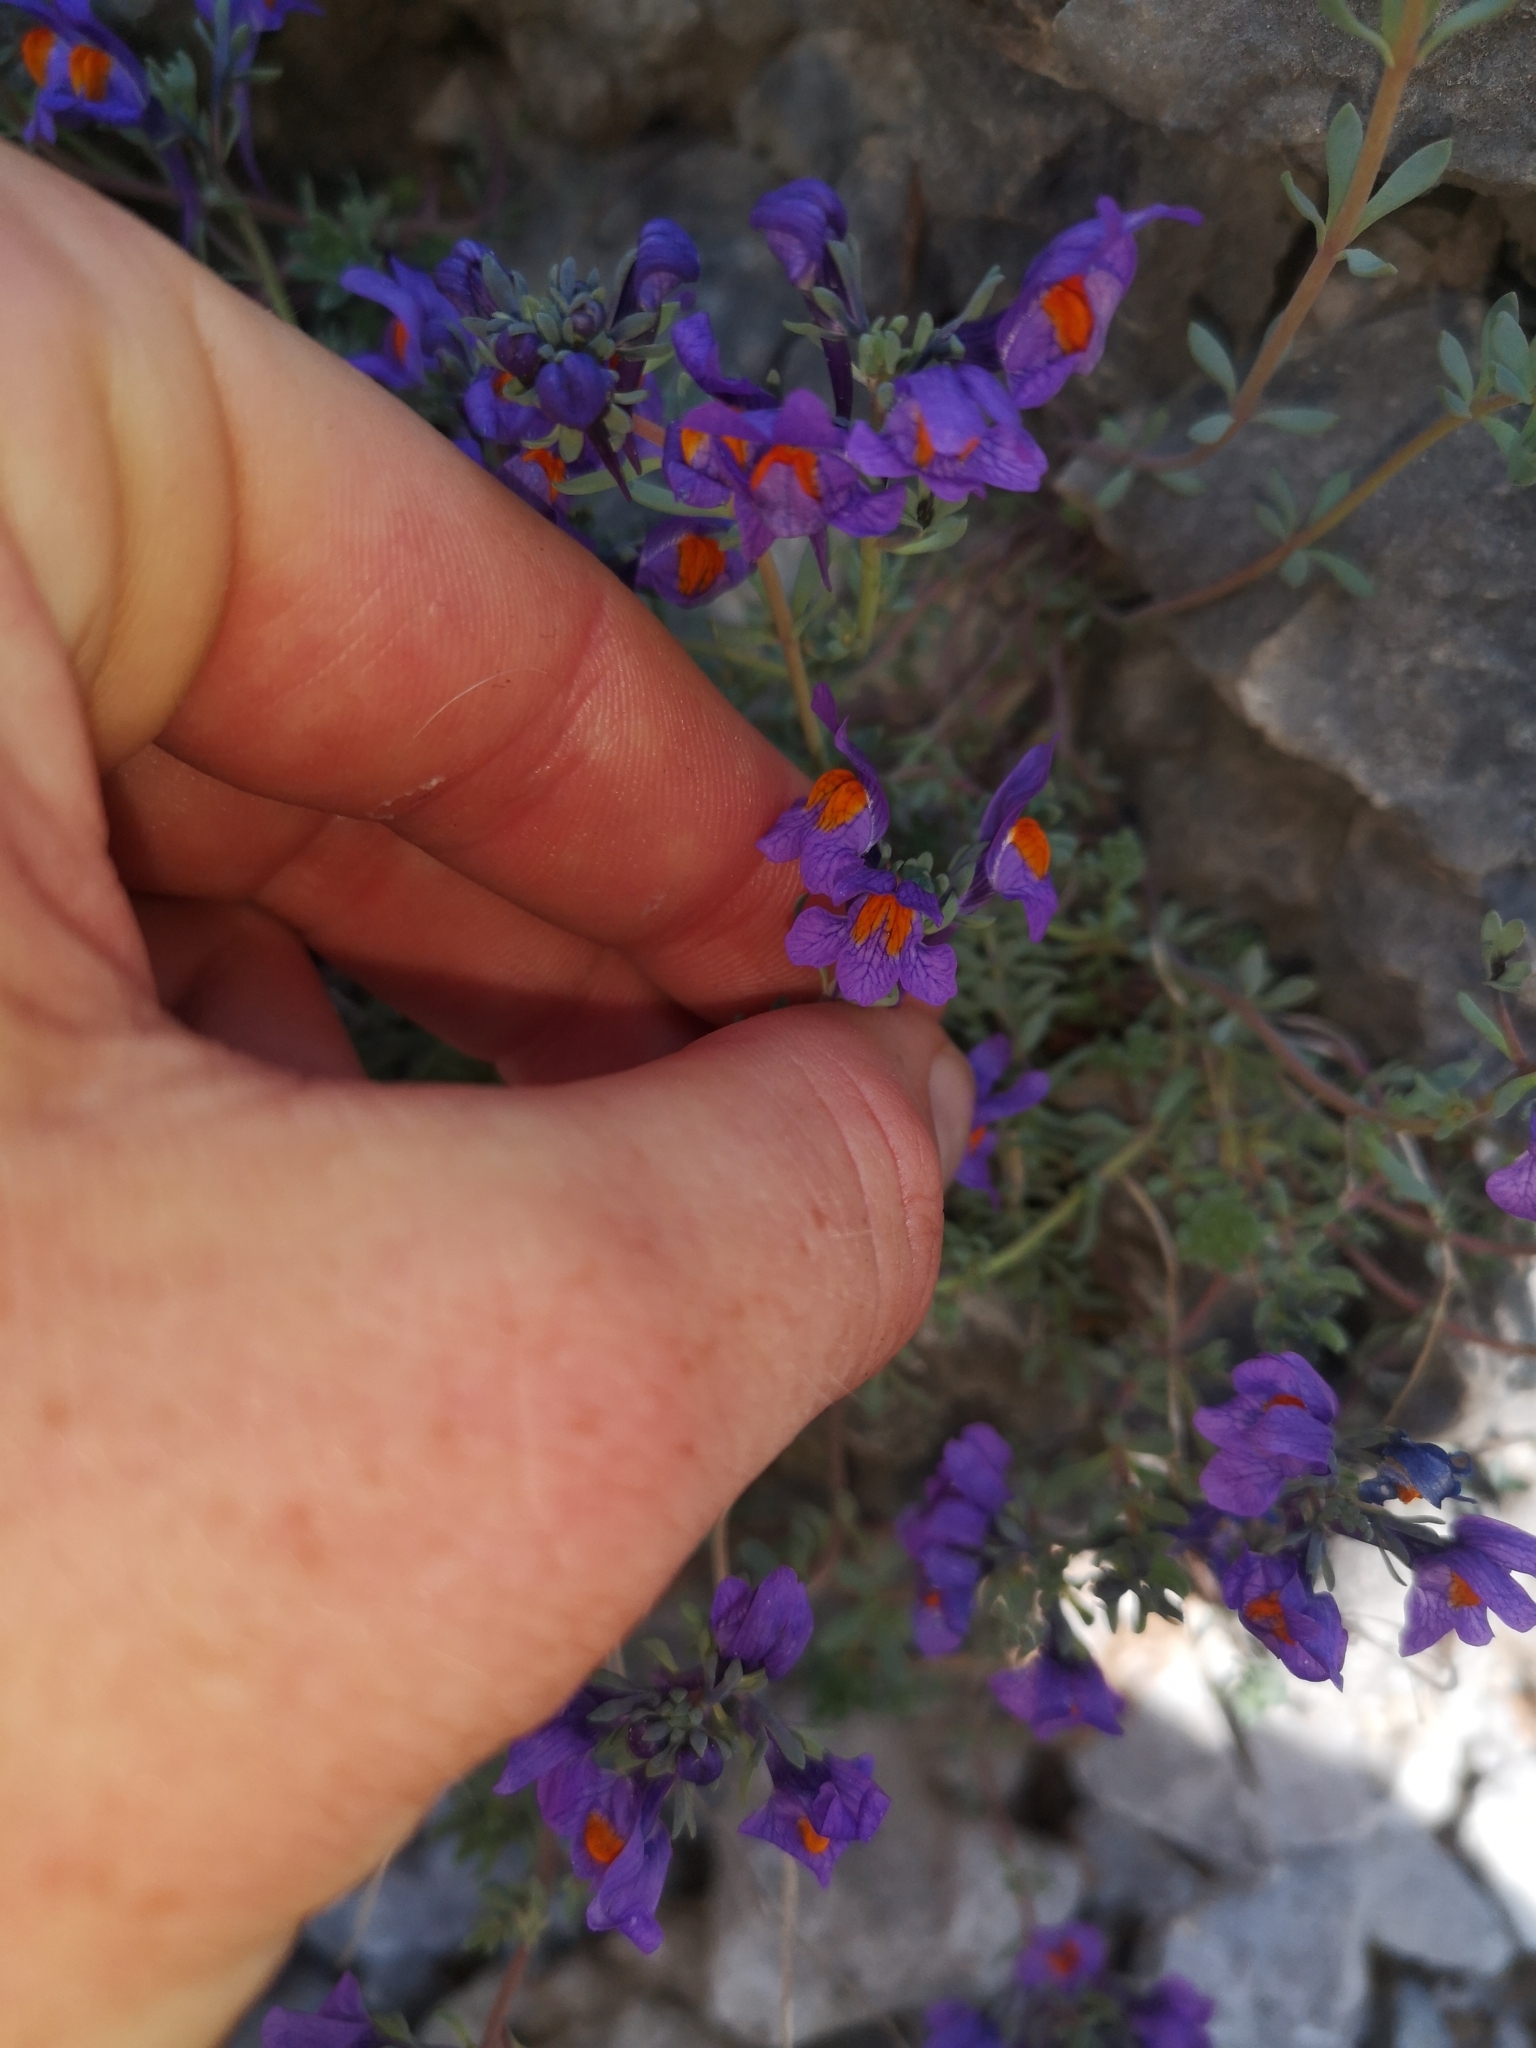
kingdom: Plantae
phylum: Tracheophyta
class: Magnoliopsida
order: Lamiales
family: Plantaginaceae
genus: Linaria
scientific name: Linaria alpina
